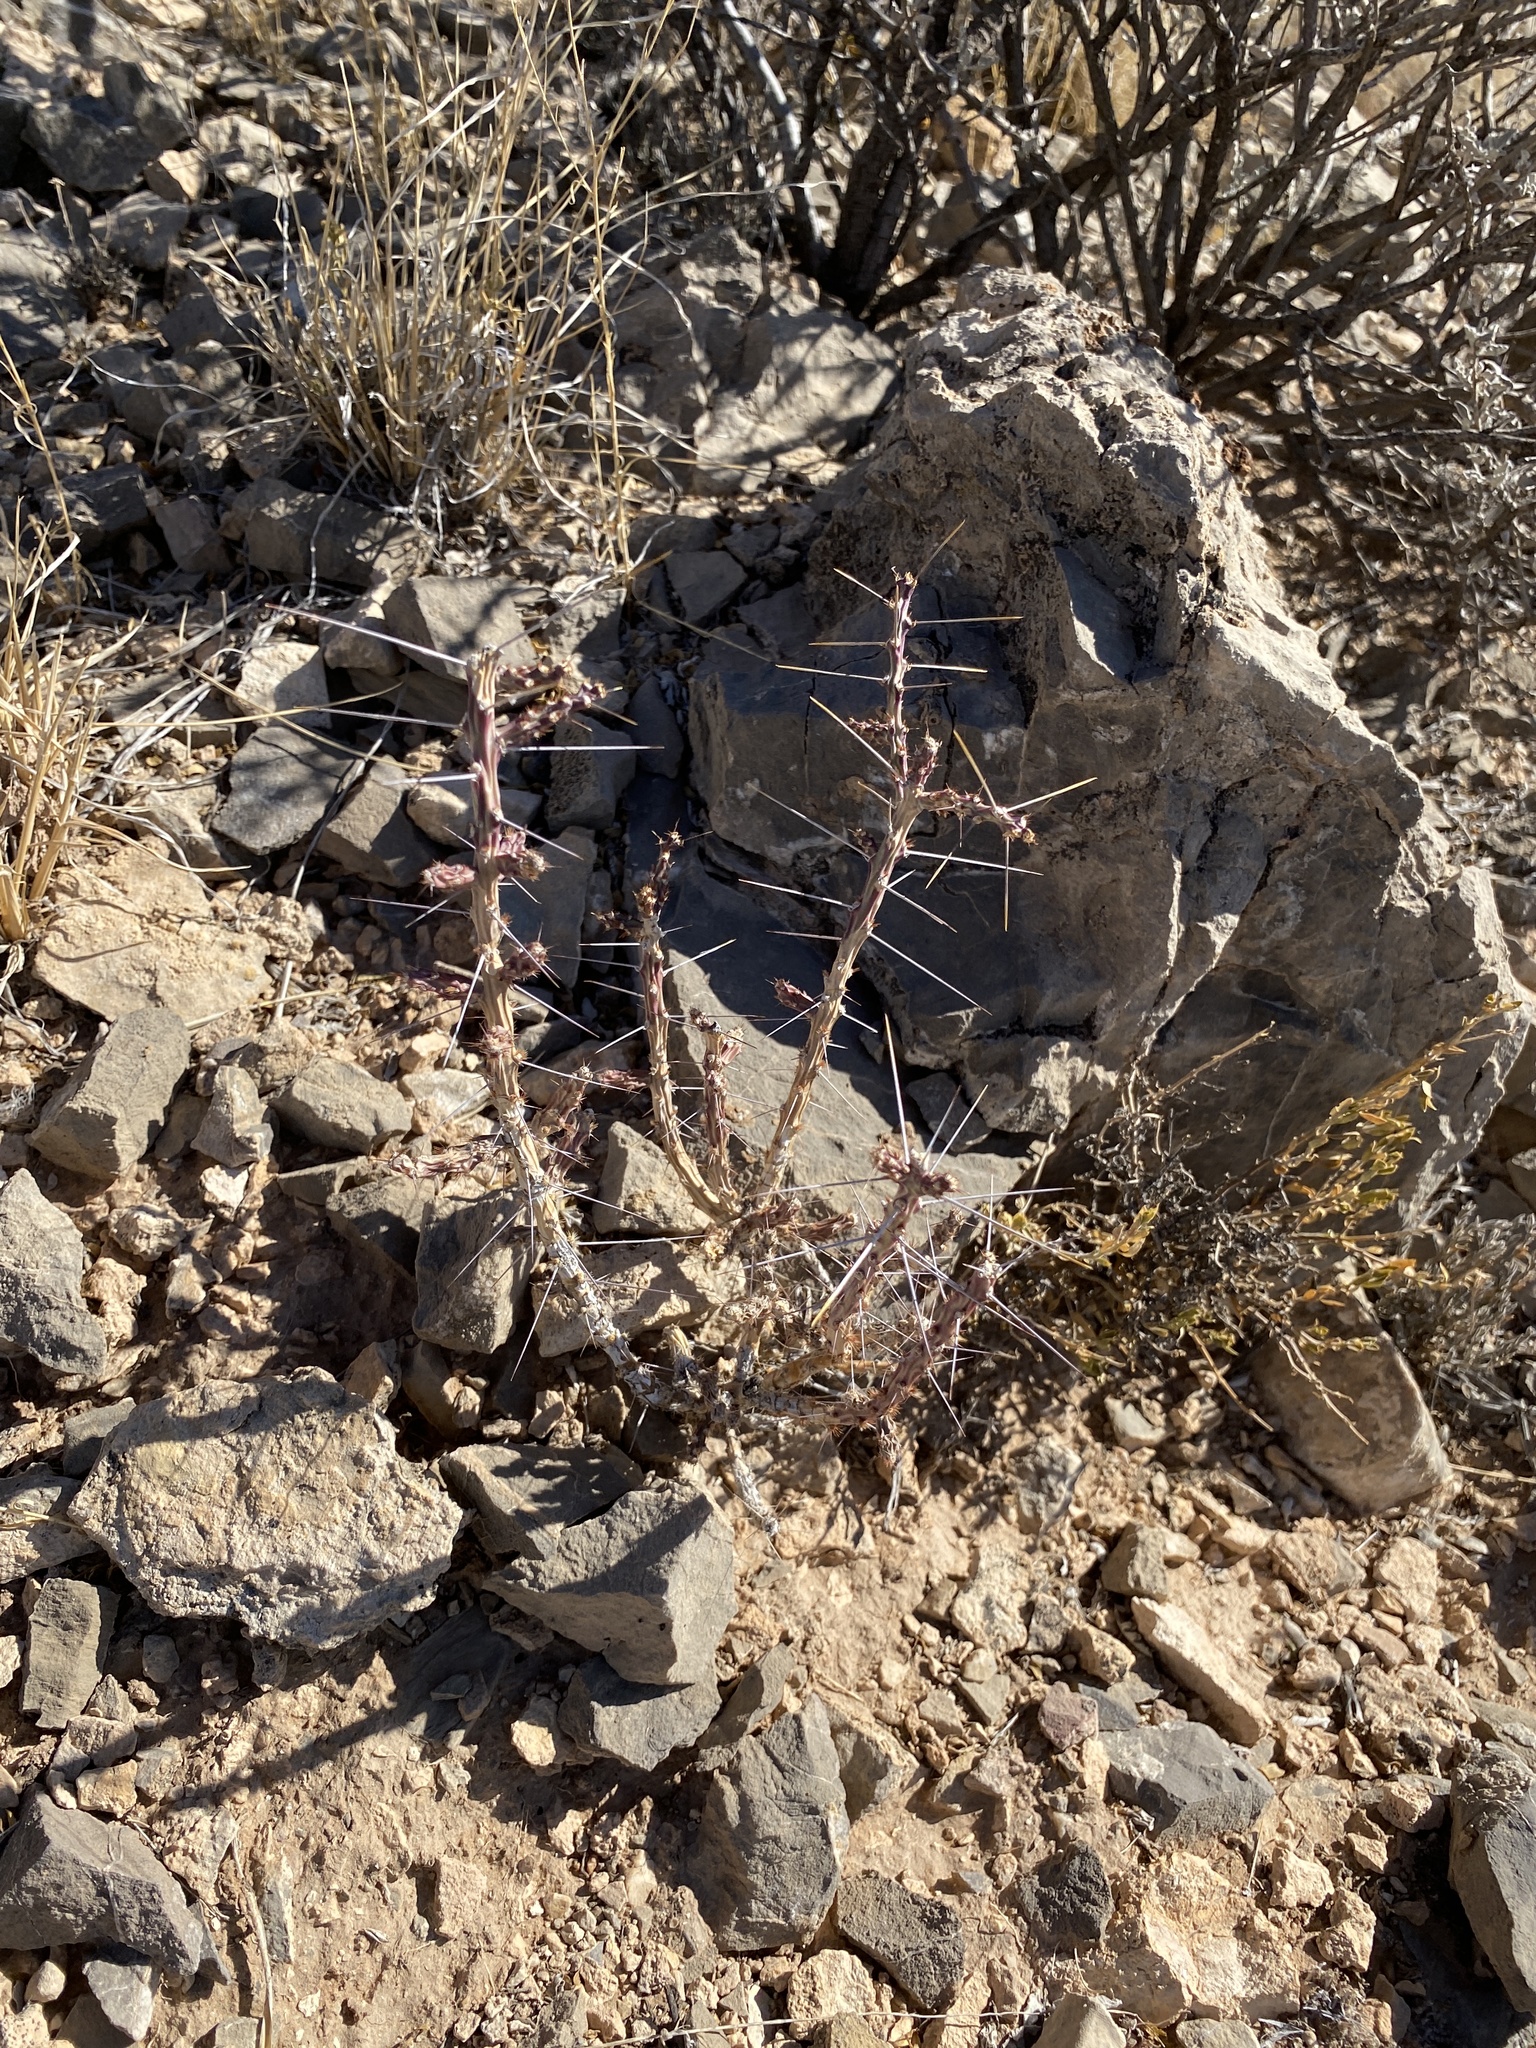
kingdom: Plantae
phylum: Tracheophyta
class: Magnoliopsida
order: Caryophyllales
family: Cactaceae
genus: Cylindropuntia
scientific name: Cylindropuntia leptocaulis
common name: Christmas cactus
